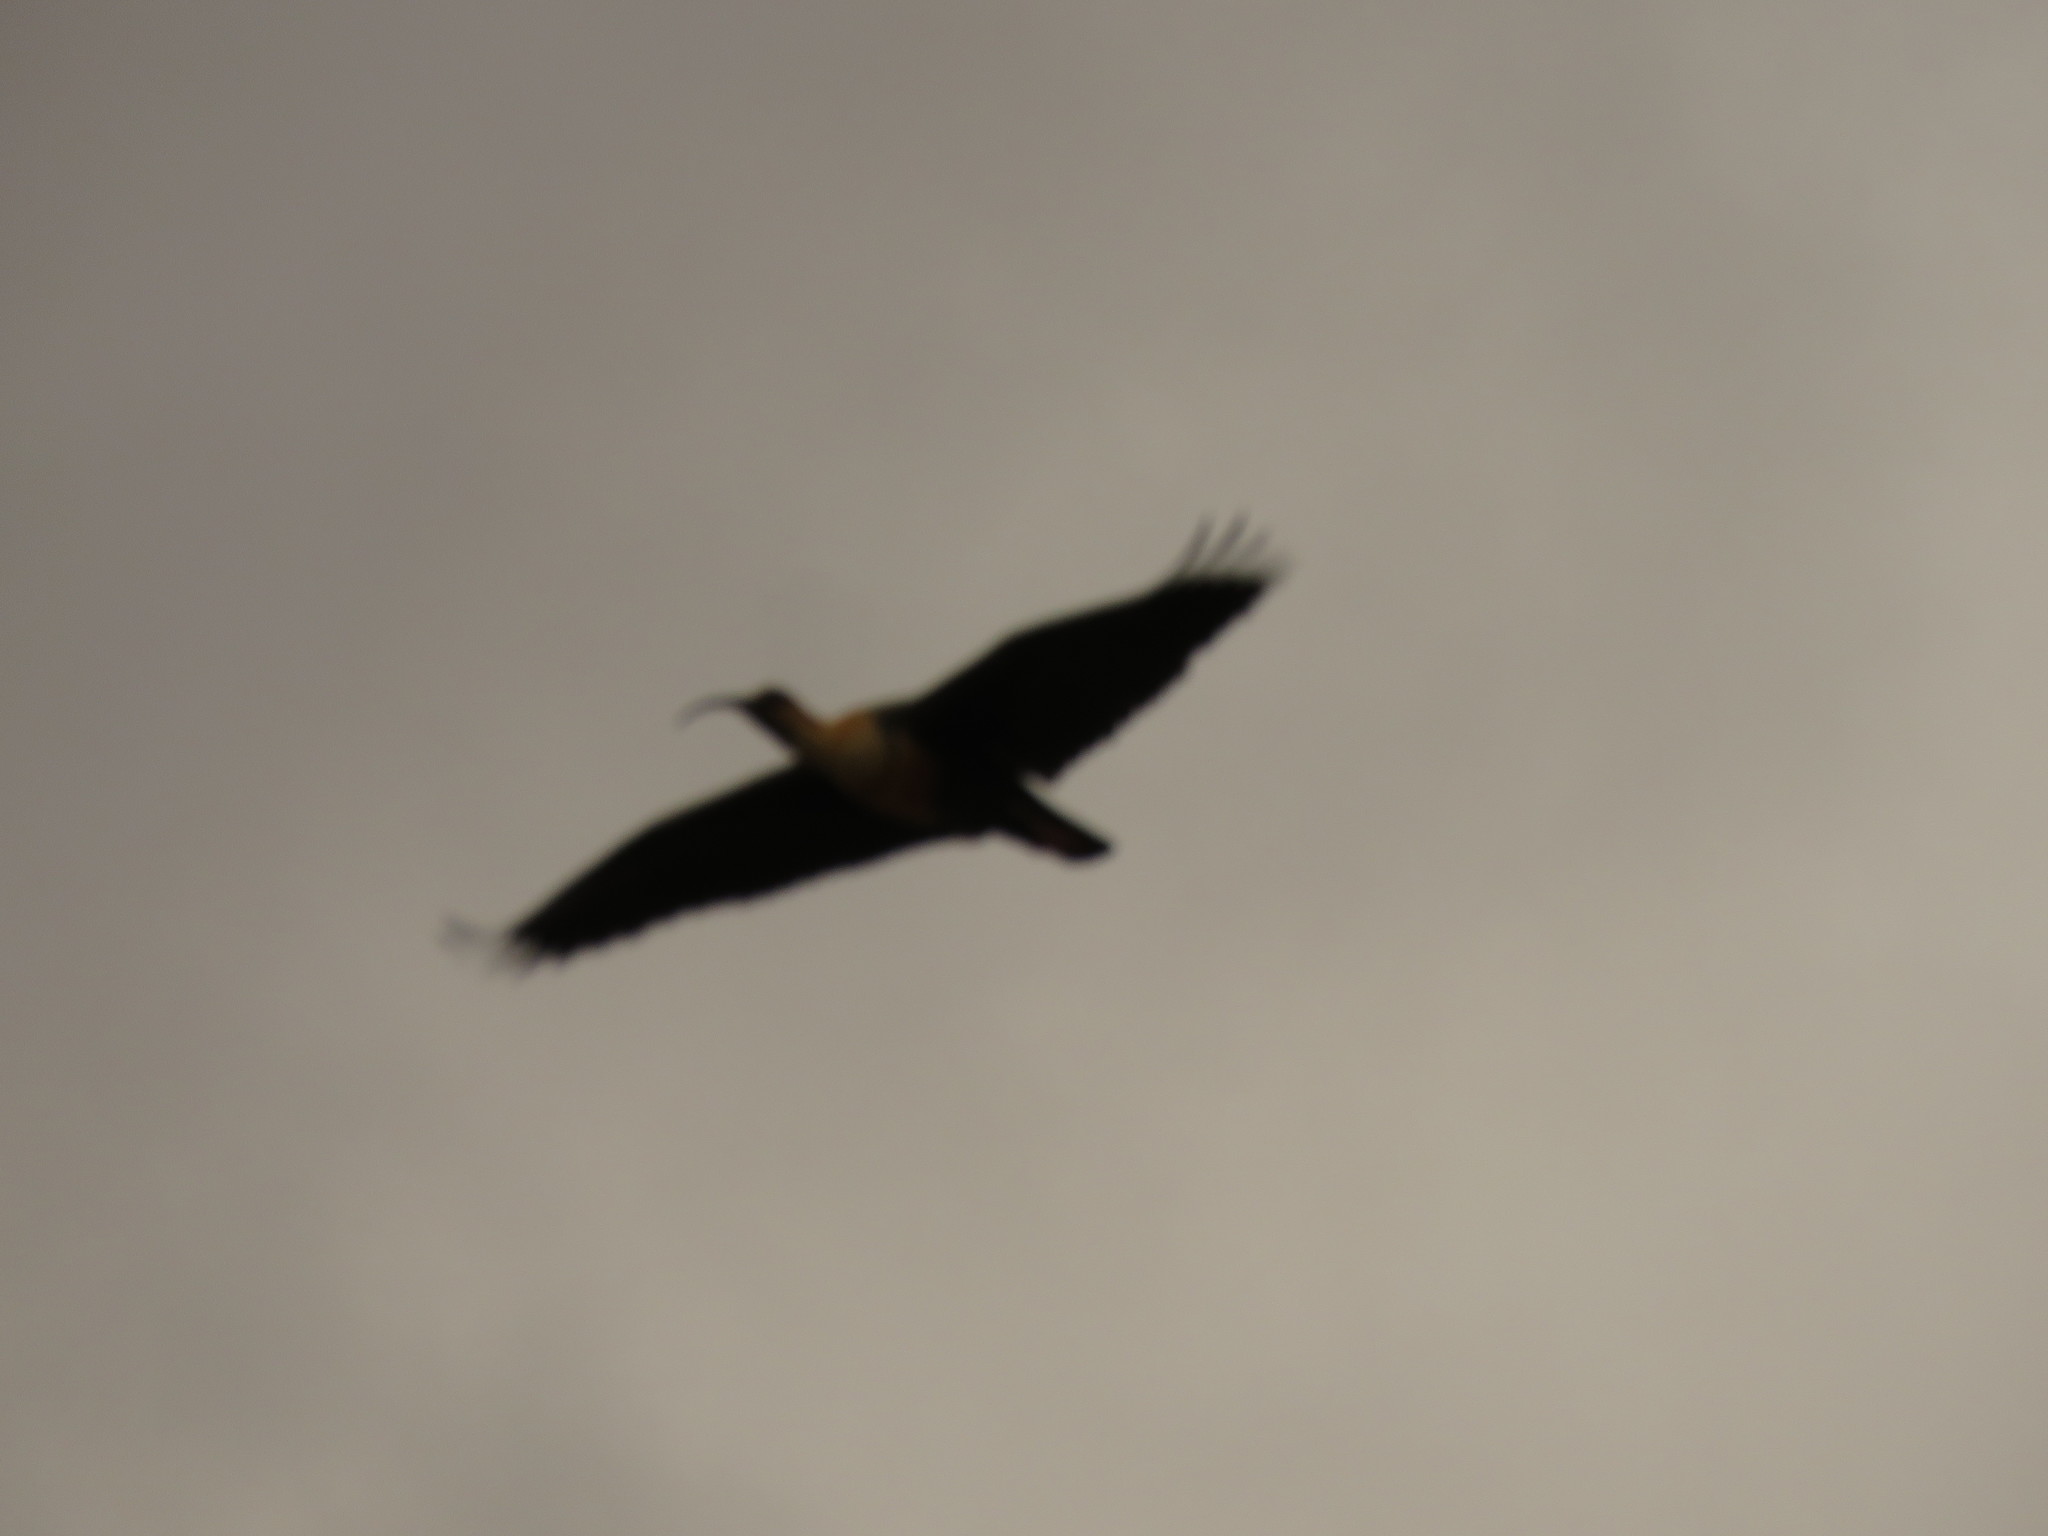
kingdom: Animalia
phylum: Chordata
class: Aves
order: Pelecaniformes
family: Threskiornithidae
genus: Theristicus
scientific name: Theristicus melanopis
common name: Black-faced ibis
